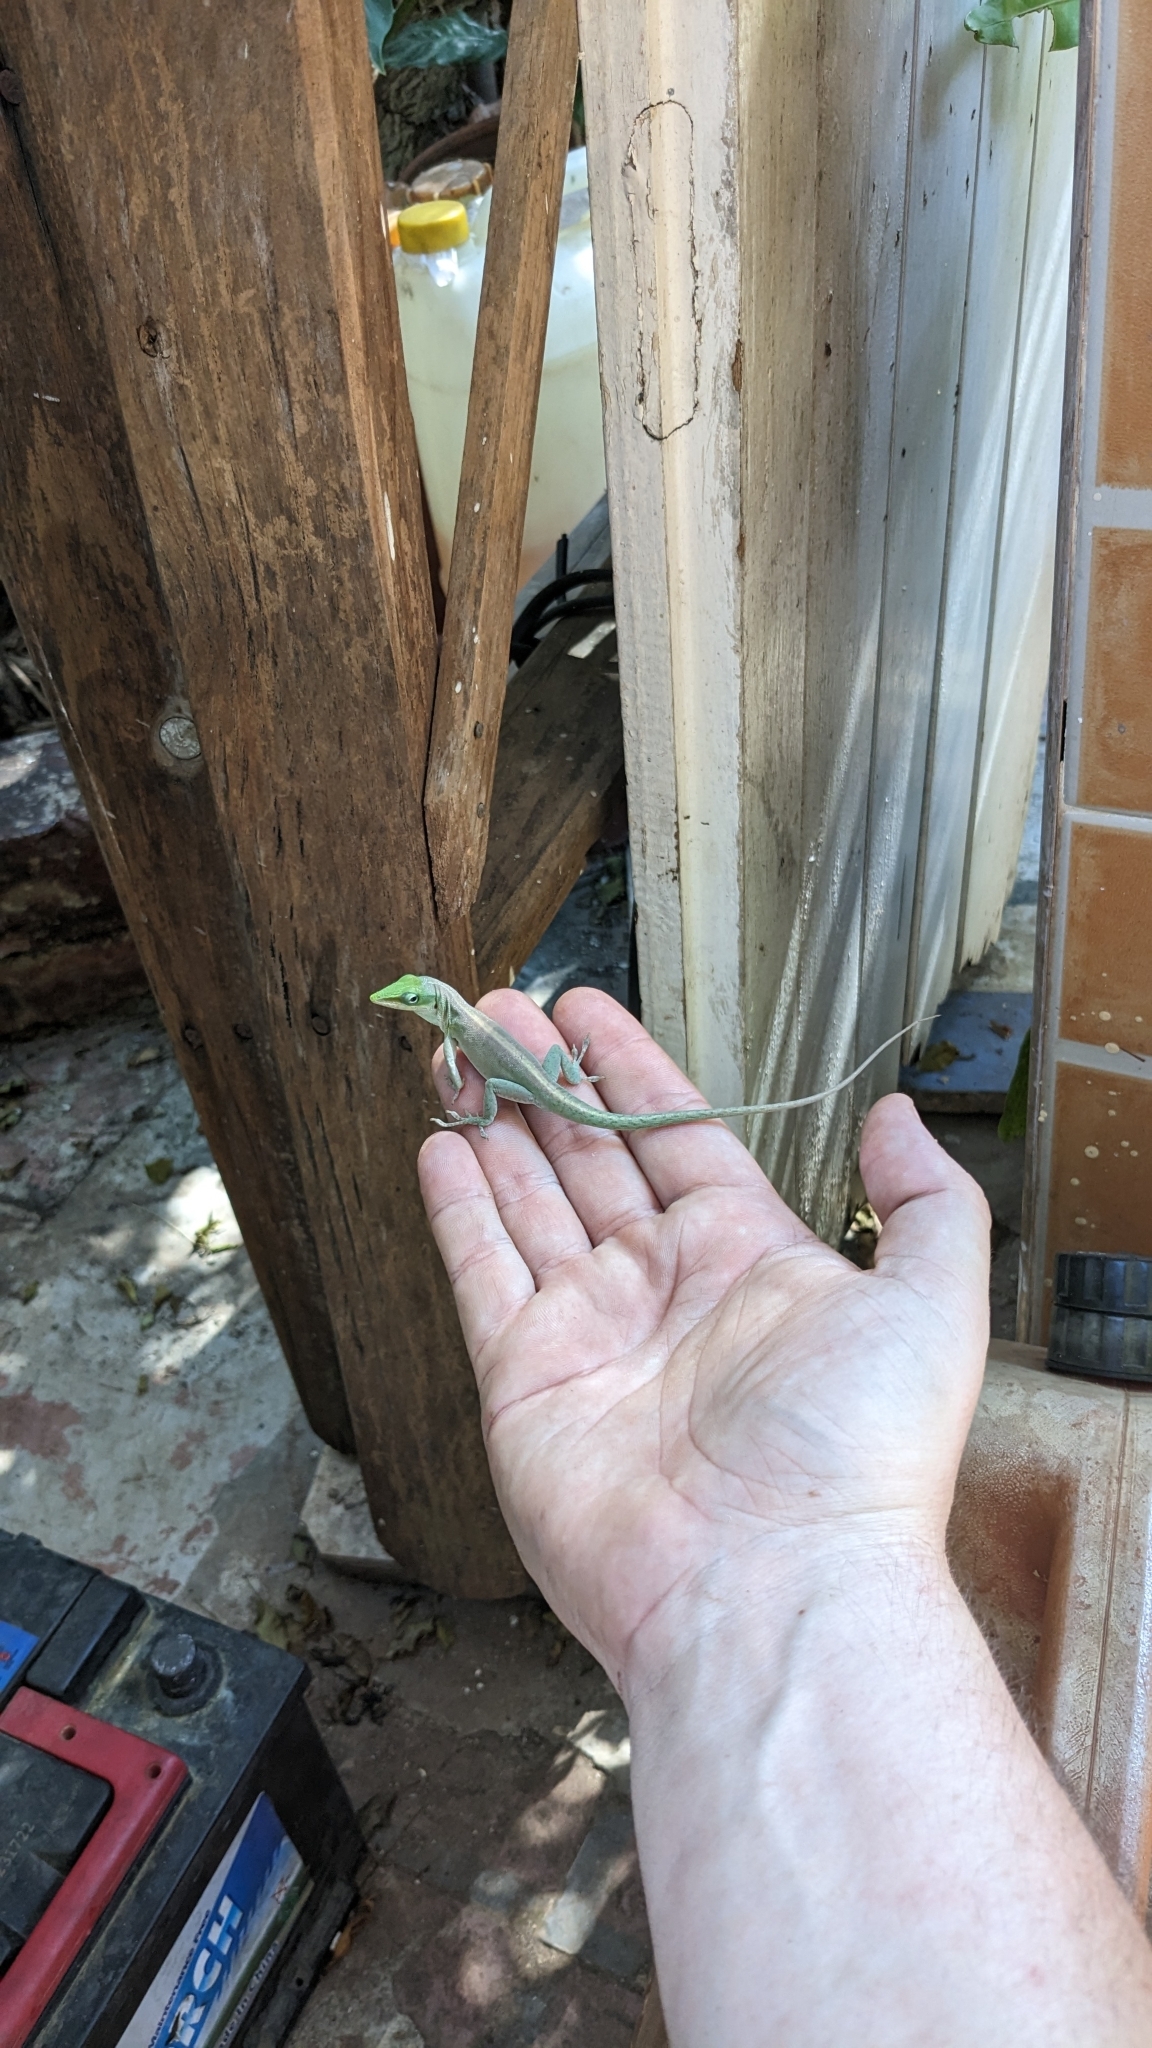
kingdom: Animalia
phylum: Chordata
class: Squamata
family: Dactyloidae
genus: Anolis
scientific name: Anolis porcatus
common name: Cuban green anole
